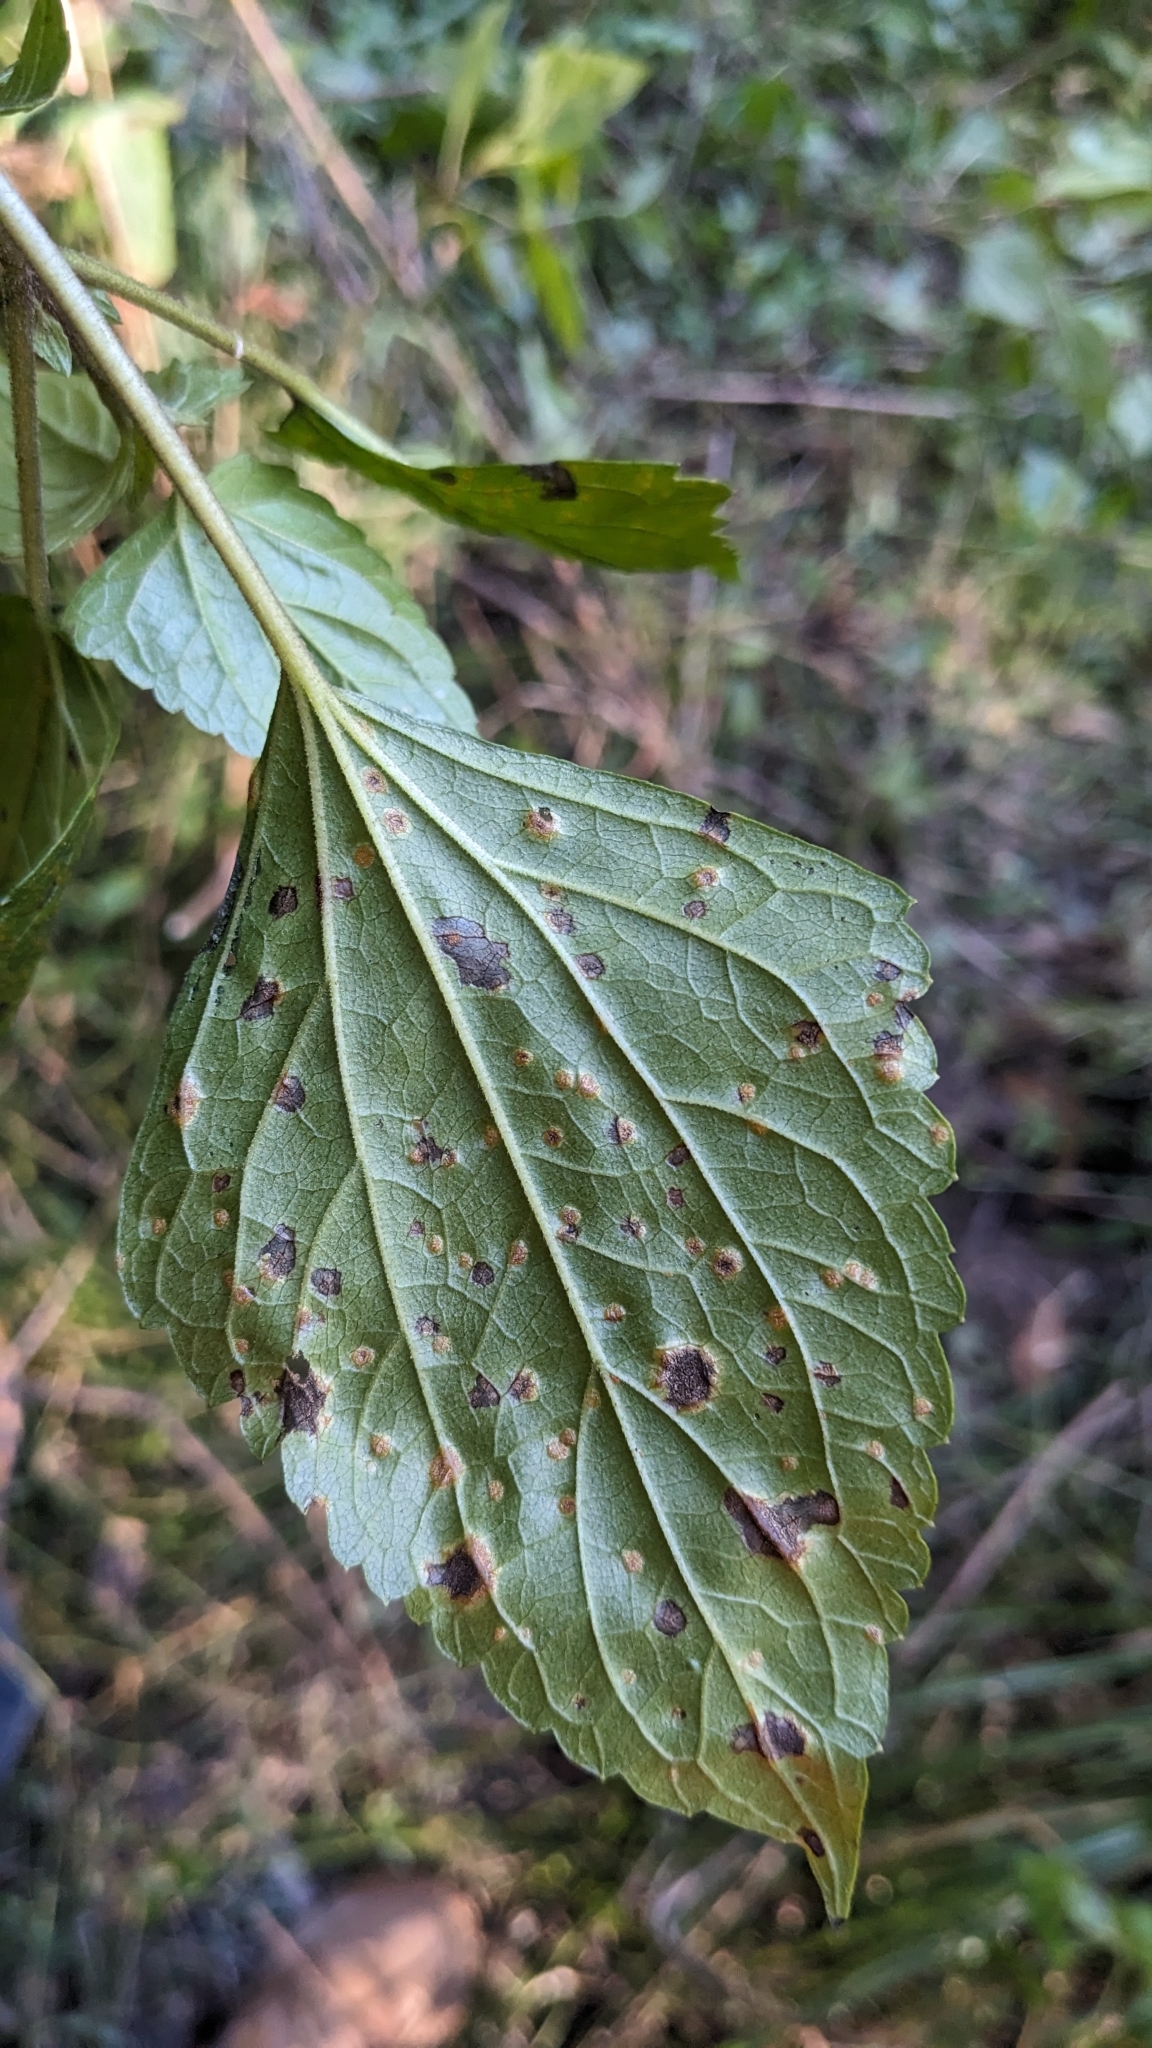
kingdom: Fungi
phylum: Basidiomycota
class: Pucciniomycetes
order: Pucciniales
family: Pucciniosiraceae
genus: Baeodromus
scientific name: Baeodromus eupatorii
